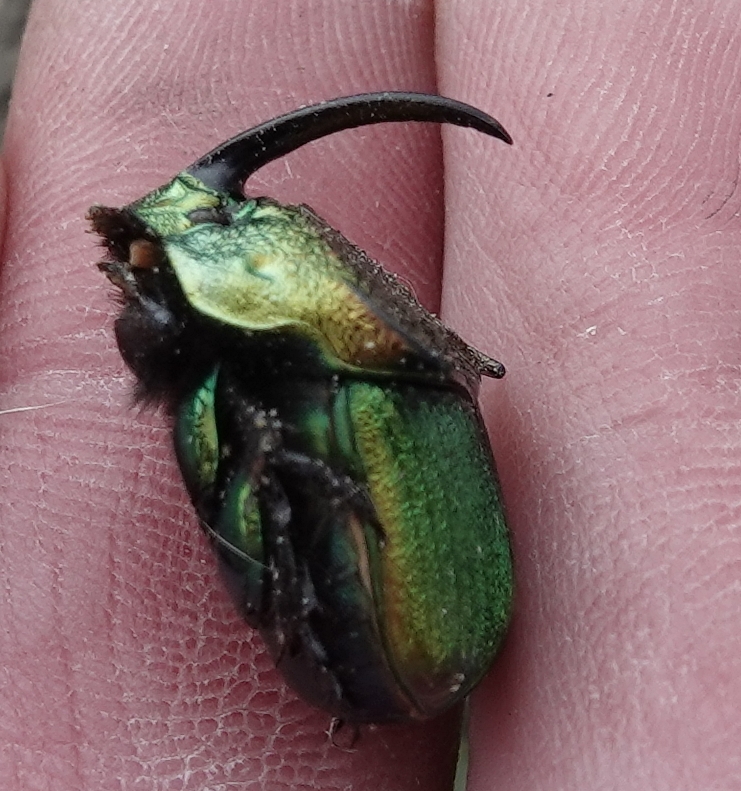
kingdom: Animalia
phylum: Arthropoda
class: Insecta
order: Coleoptera
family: Scarabaeidae
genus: Phanaeus
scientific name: Phanaeus vindex
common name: Rainbow scarab
